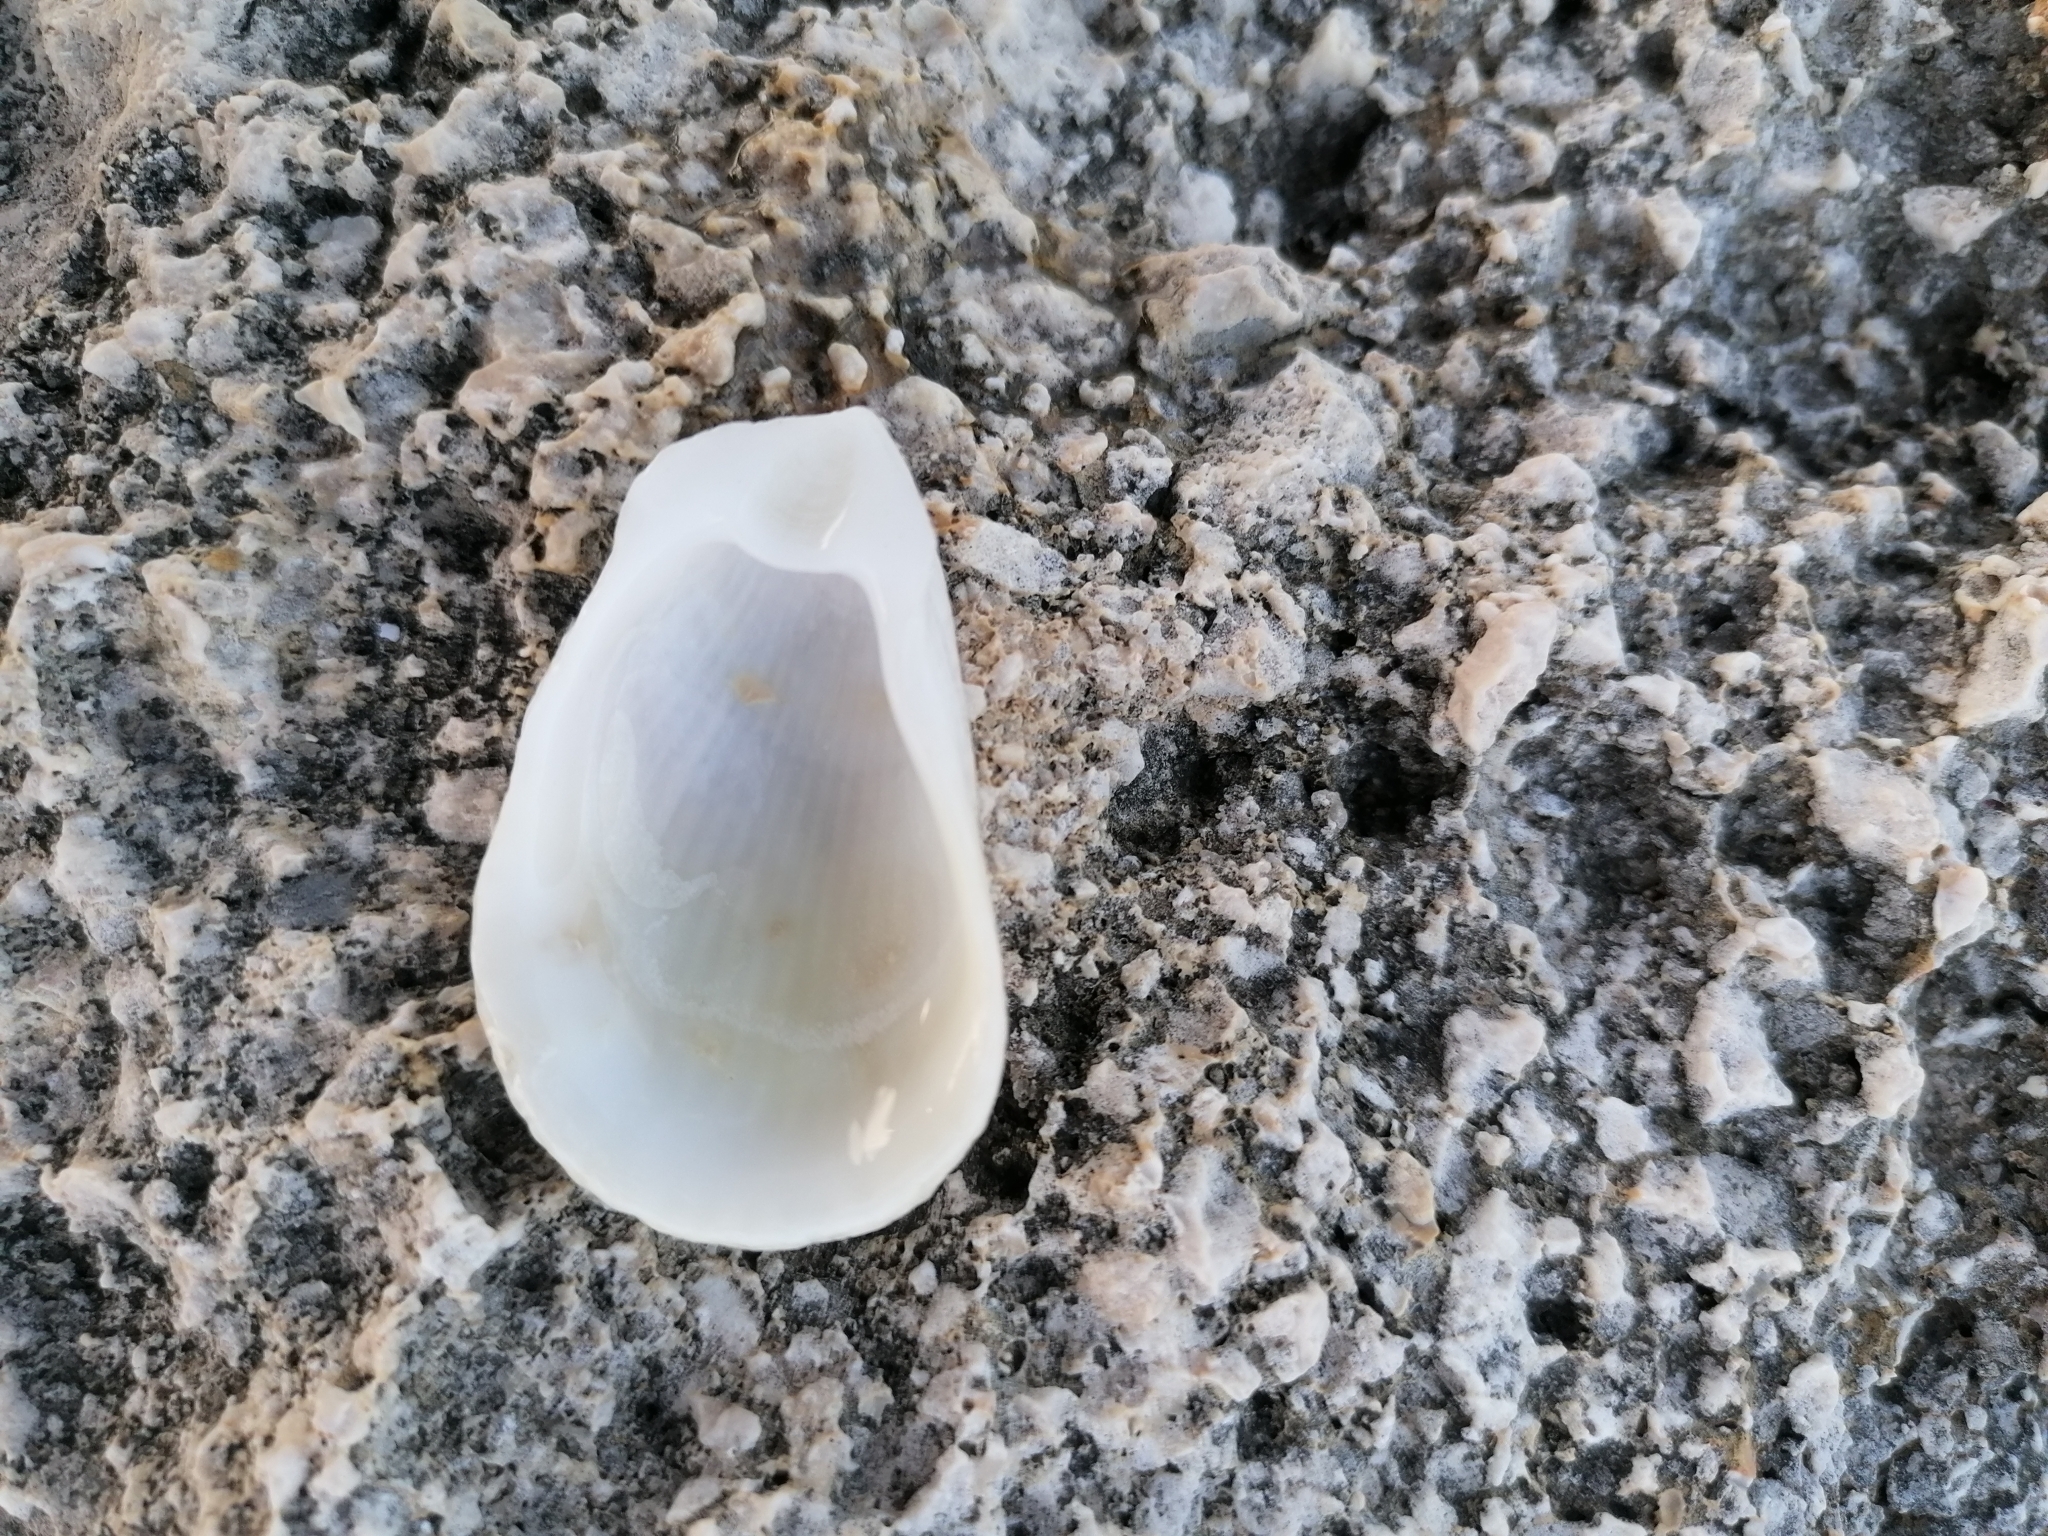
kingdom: Animalia
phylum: Mollusca
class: Bivalvia
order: Limida
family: Limidae
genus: Lima
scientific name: Lima lima
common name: Frilled file shell
